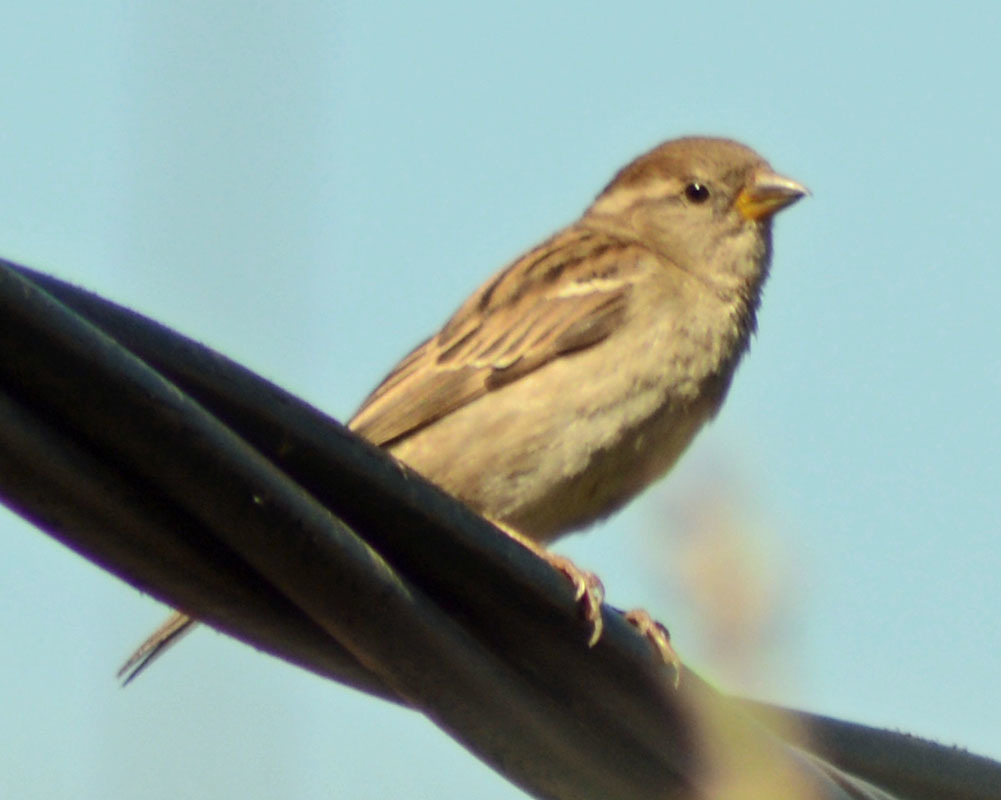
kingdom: Animalia
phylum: Chordata
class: Aves
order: Passeriformes
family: Passeridae
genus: Passer
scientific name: Passer domesticus
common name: House sparrow
